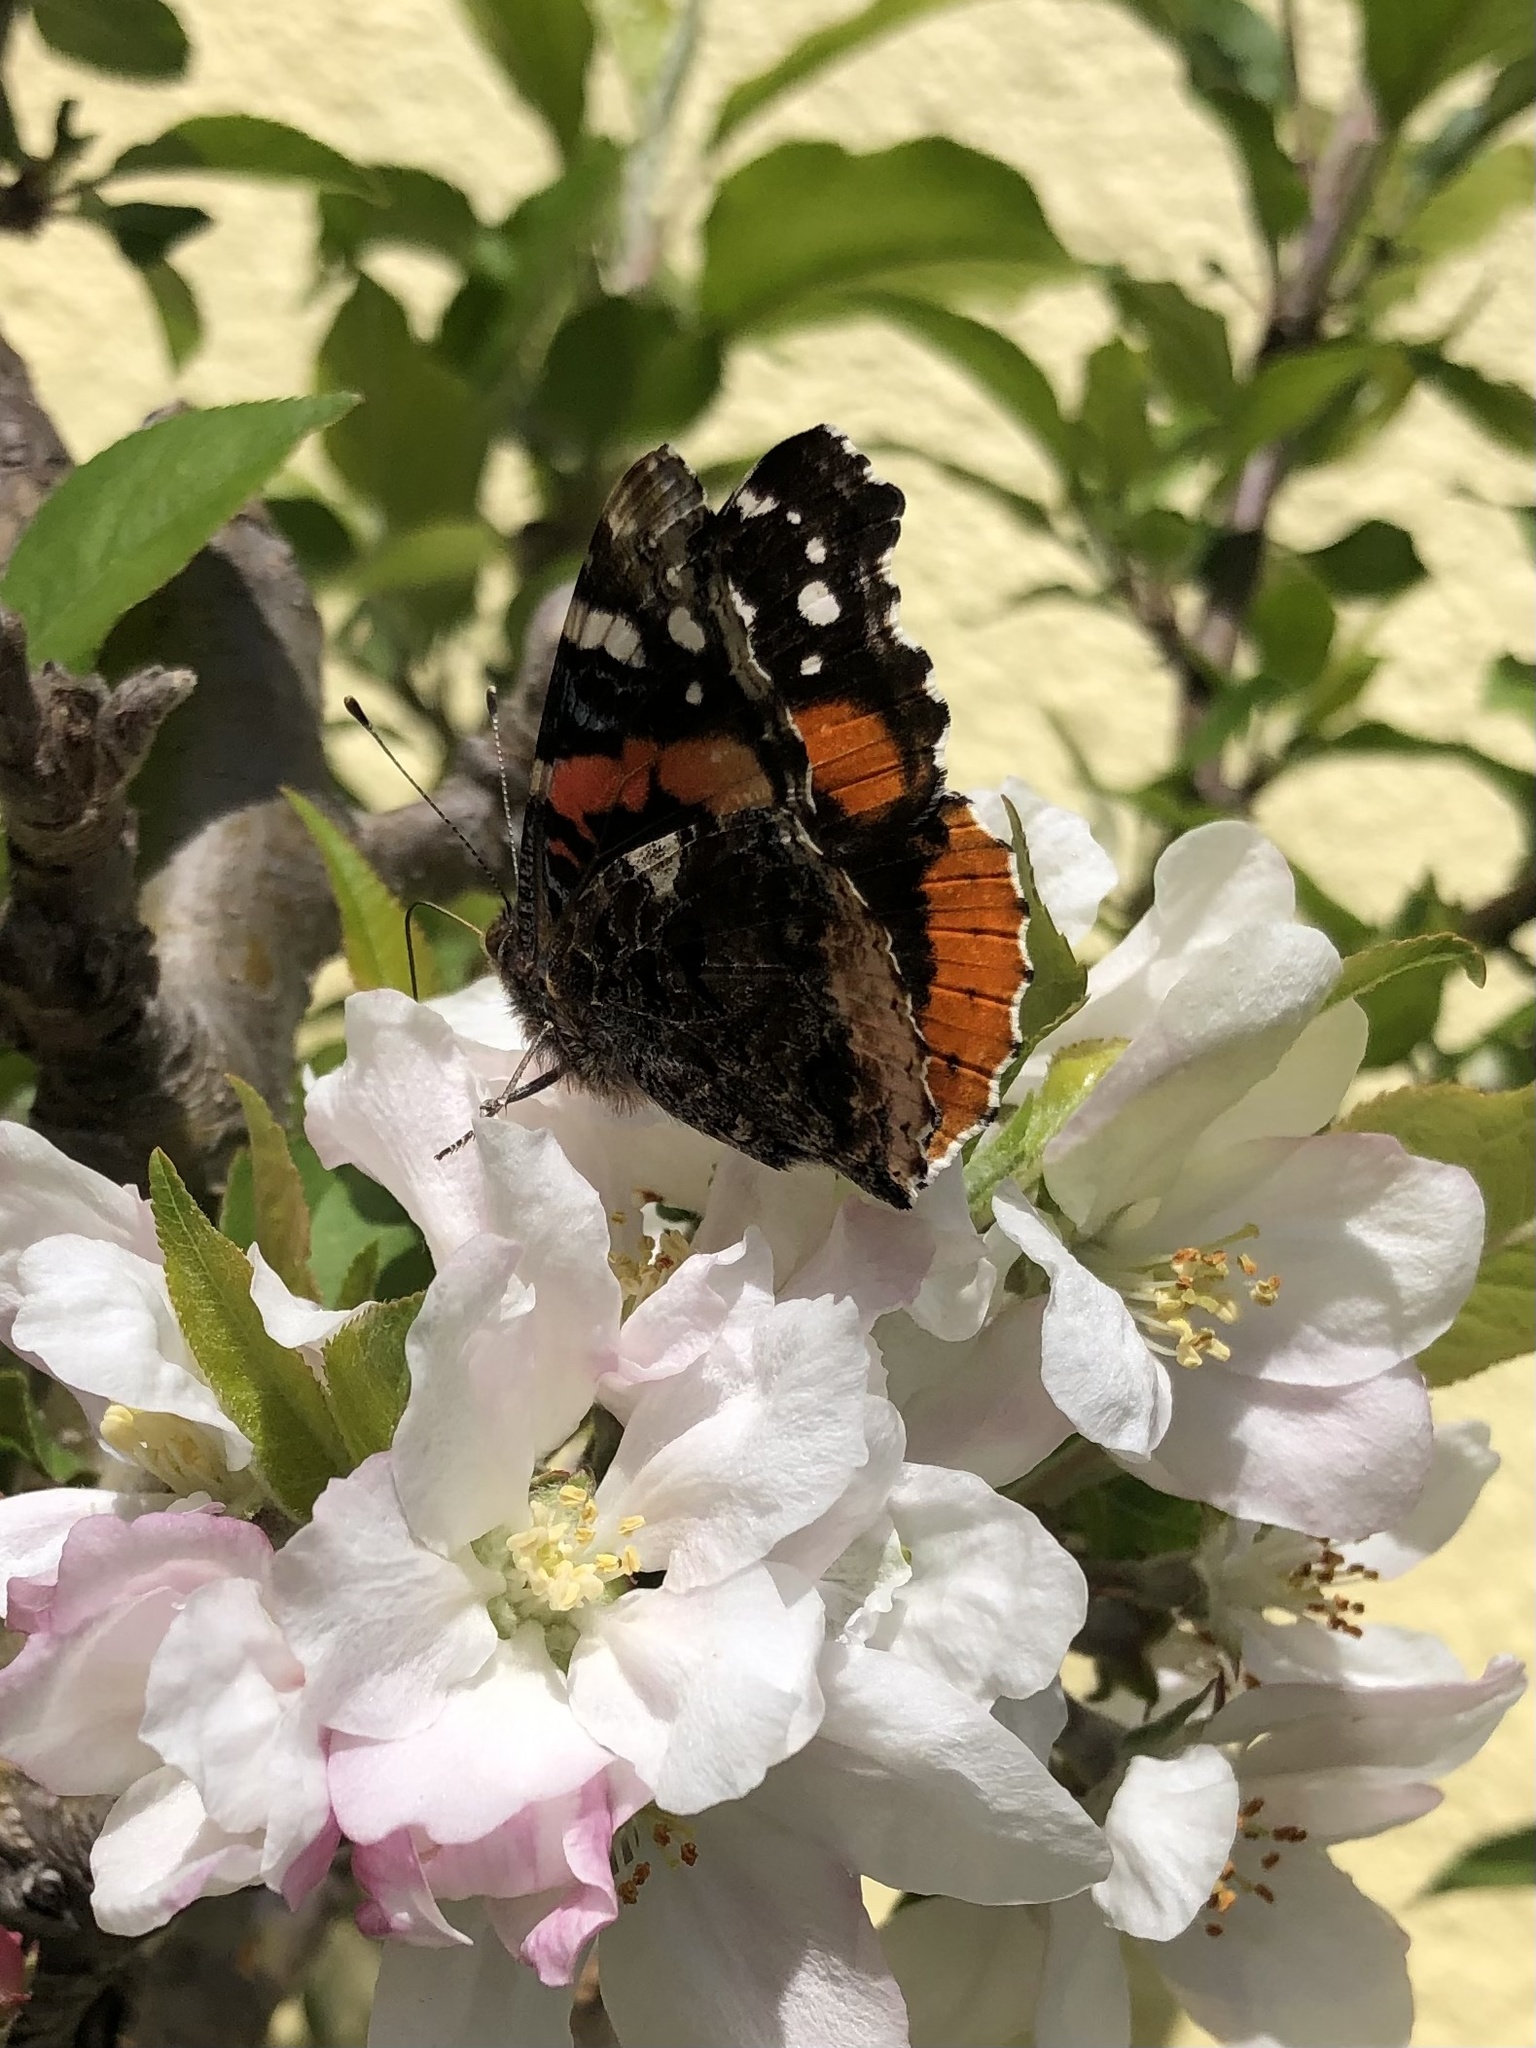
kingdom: Animalia
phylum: Arthropoda
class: Insecta
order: Lepidoptera
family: Nymphalidae
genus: Vanessa
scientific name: Vanessa atalanta
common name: Red admiral
